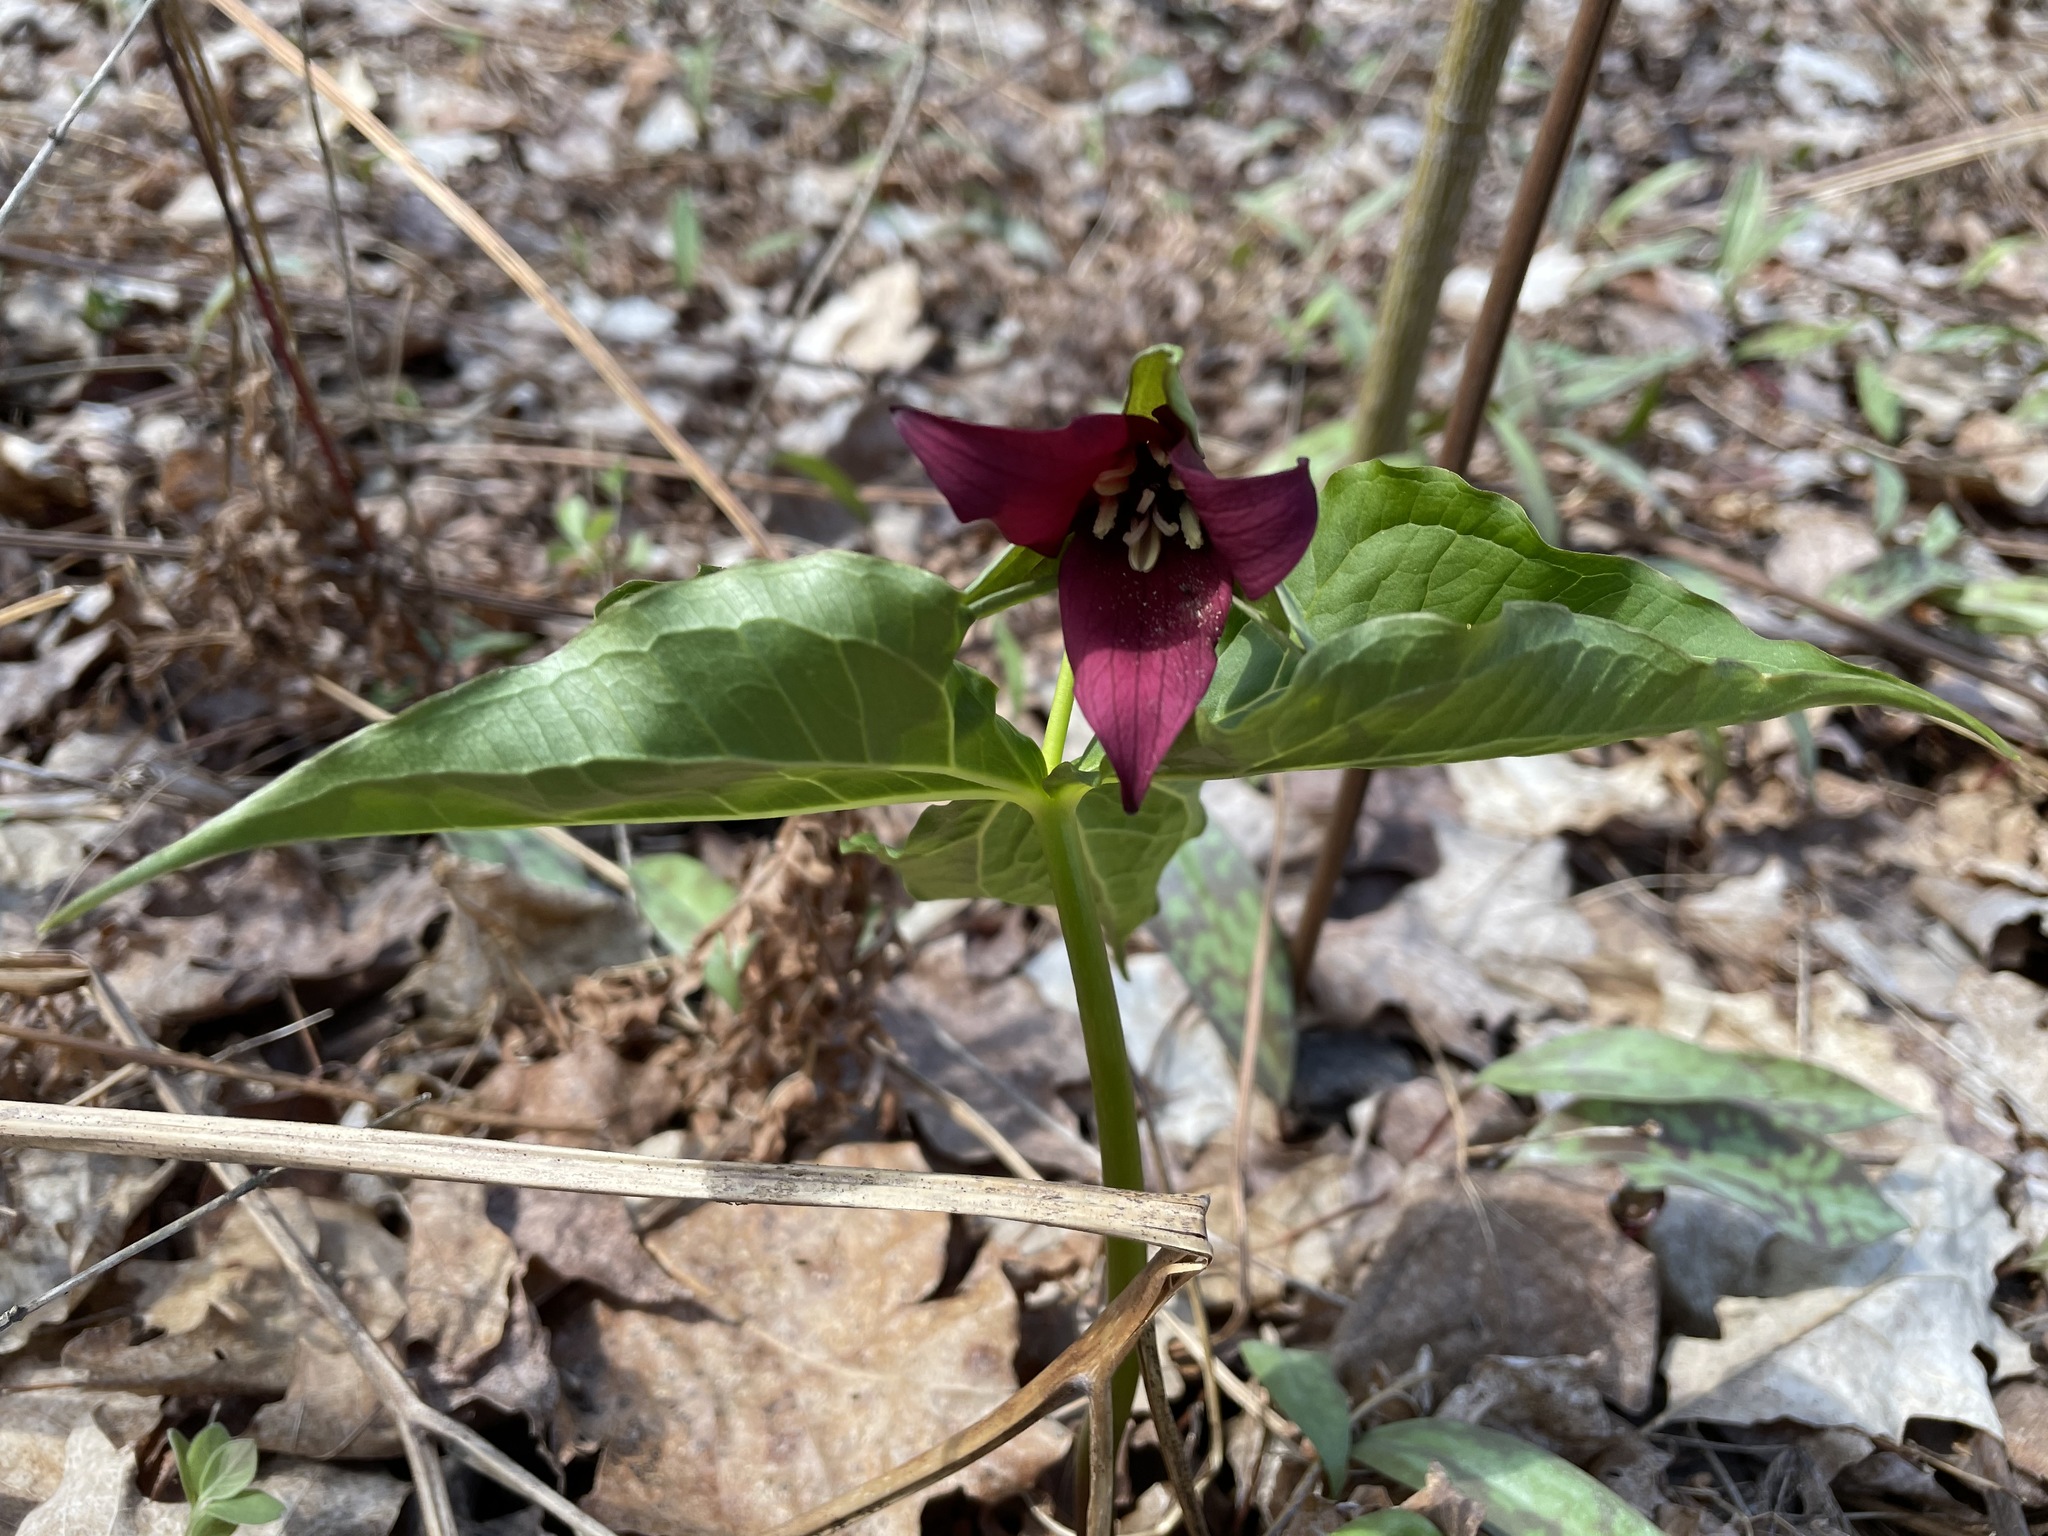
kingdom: Plantae
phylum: Tracheophyta
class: Liliopsida
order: Liliales
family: Melanthiaceae
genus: Trillium
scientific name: Trillium erectum
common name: Purple trillium
